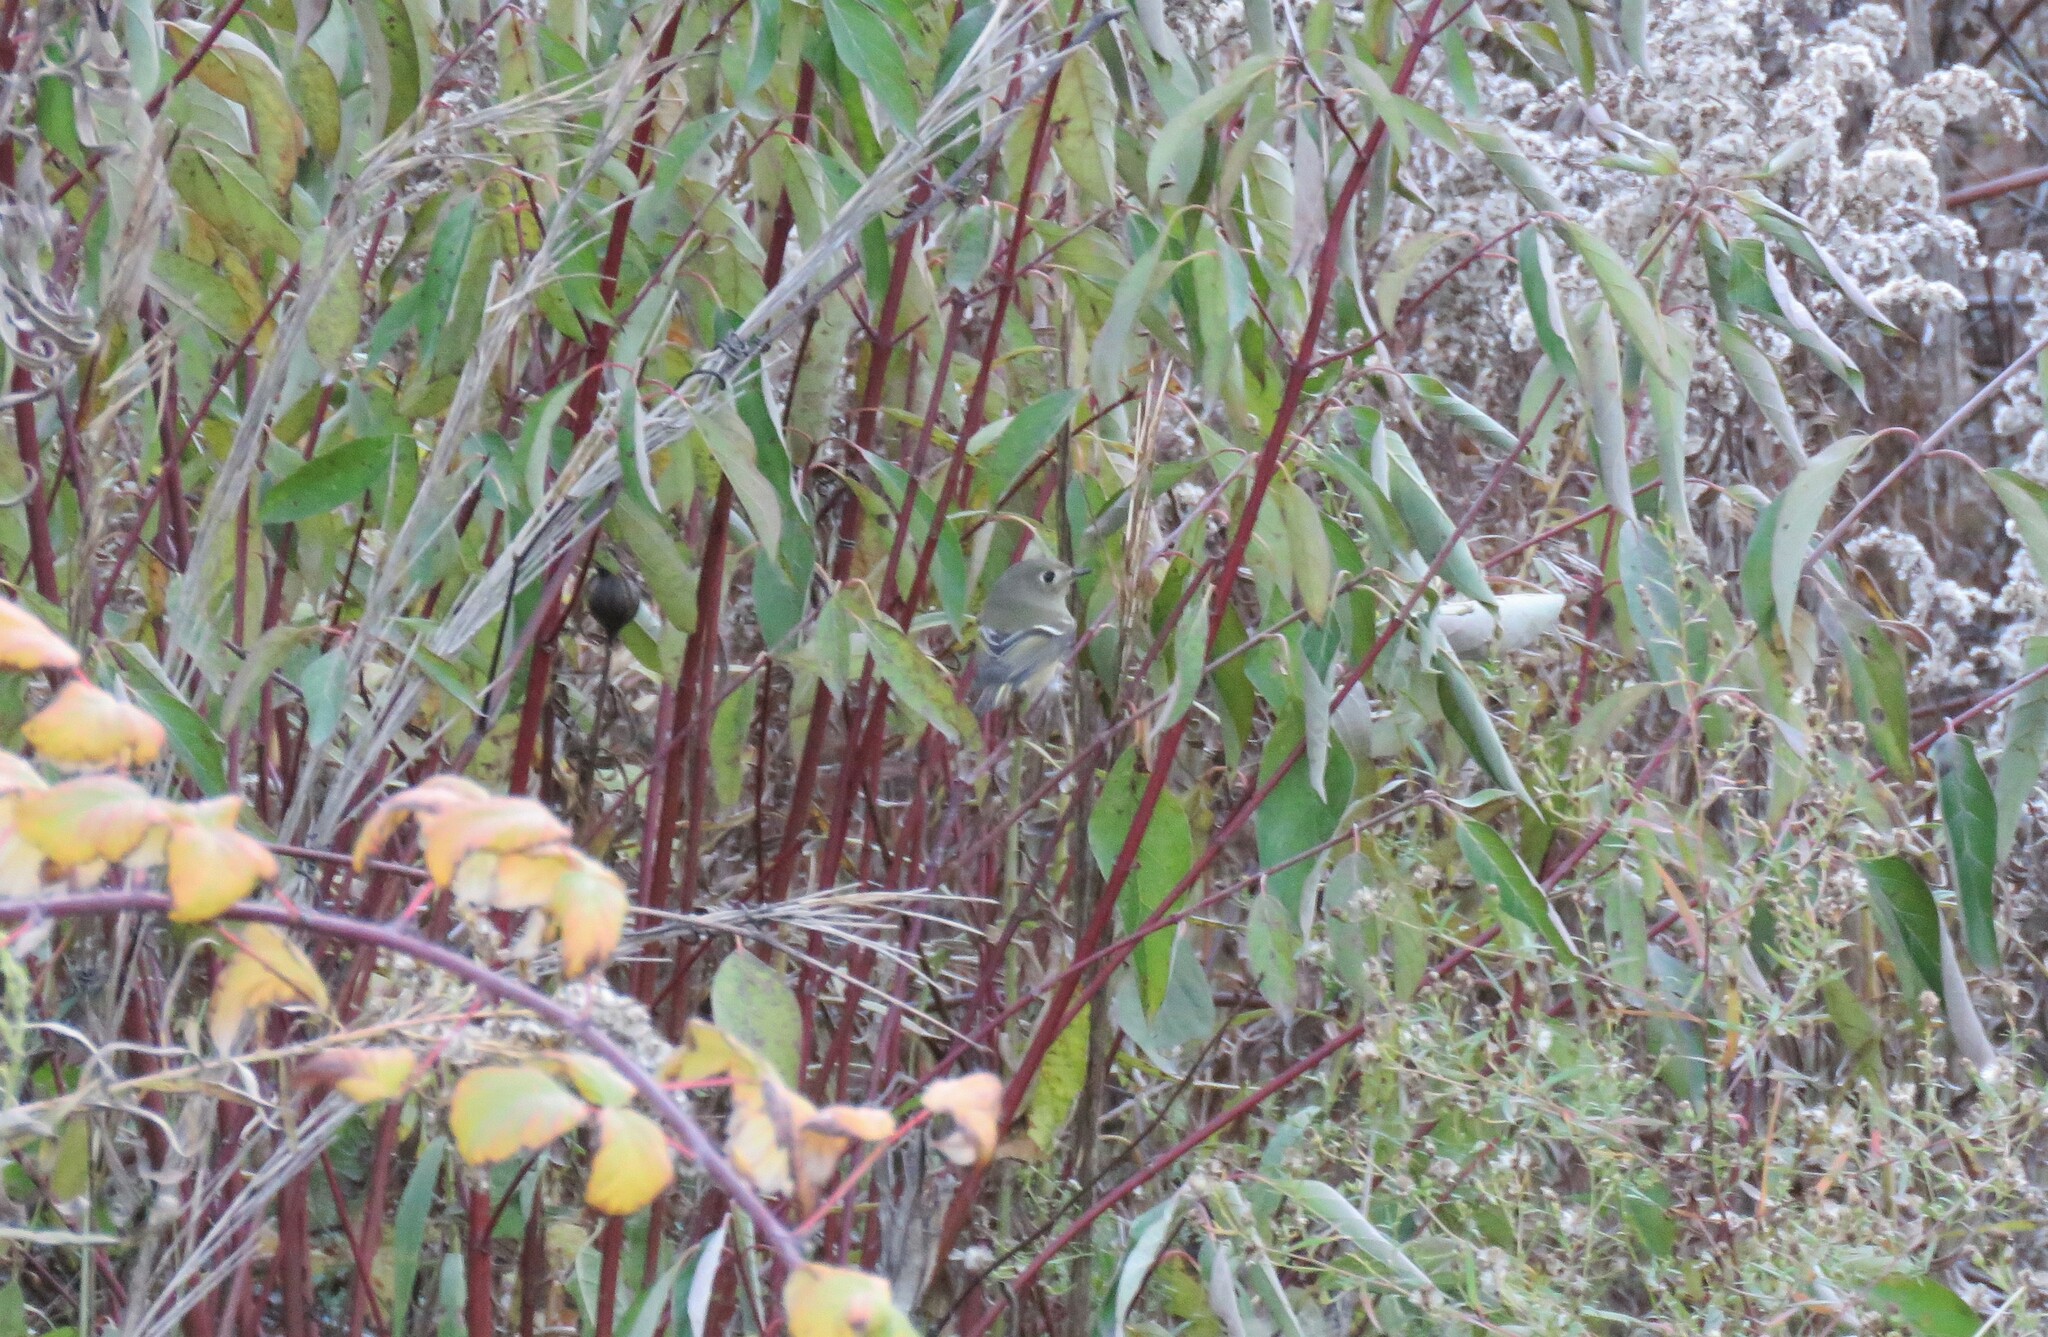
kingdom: Animalia
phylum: Chordata
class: Aves
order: Passeriformes
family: Regulidae
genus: Regulus
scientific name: Regulus calendula
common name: Ruby-crowned kinglet
